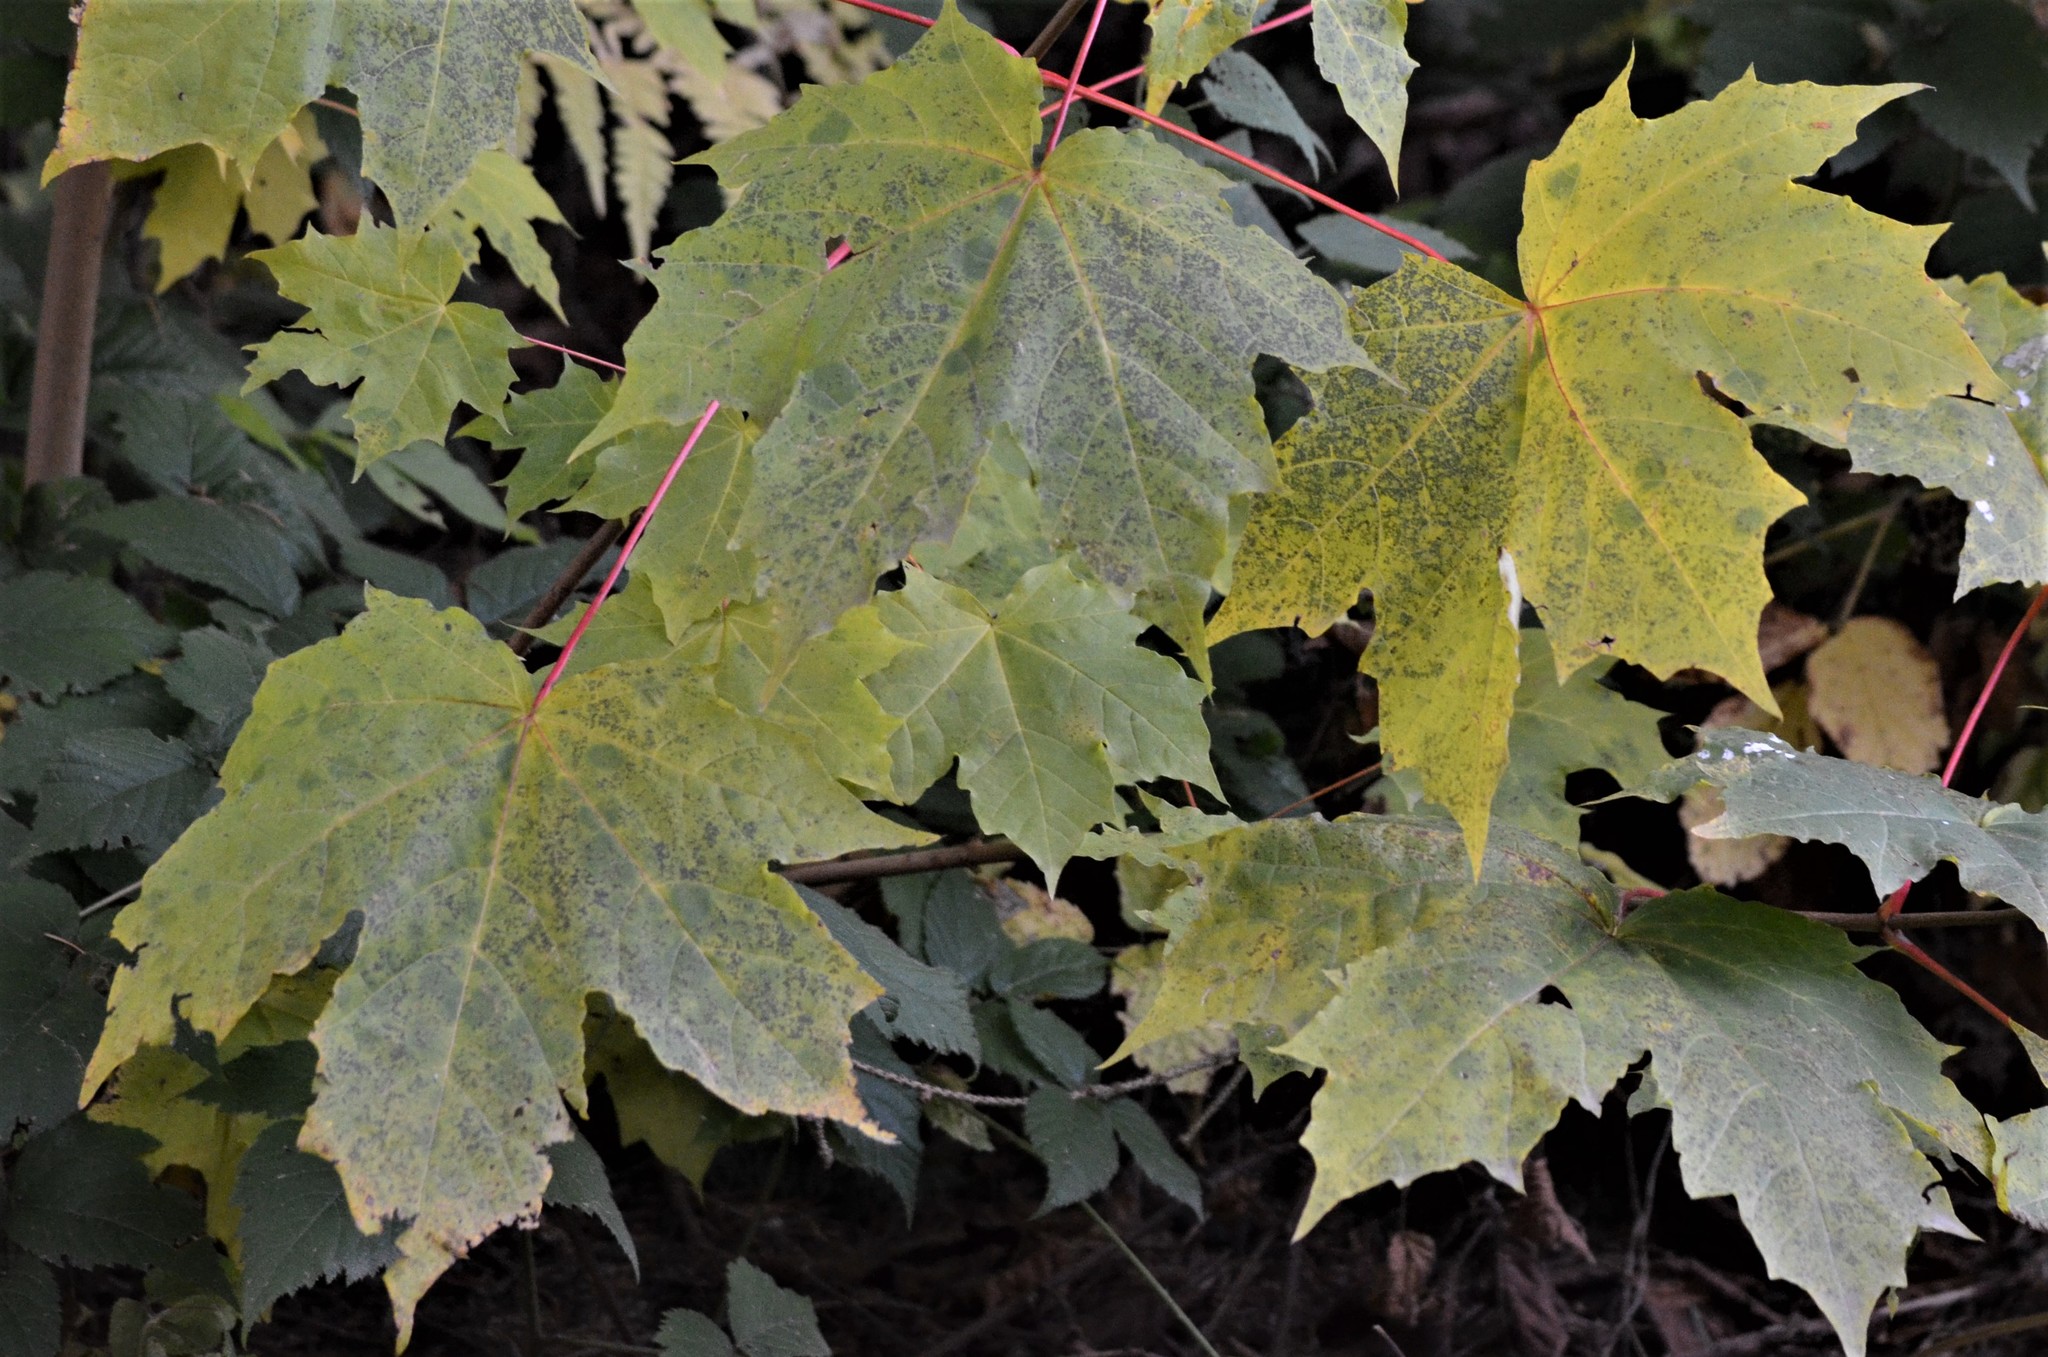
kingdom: Plantae
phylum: Tracheophyta
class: Magnoliopsida
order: Sapindales
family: Sapindaceae
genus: Acer
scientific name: Acer platanoides
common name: Norway maple
